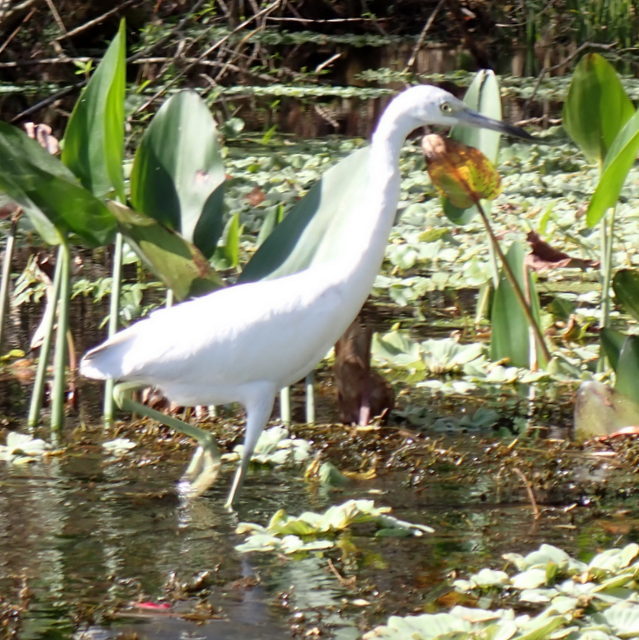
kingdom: Animalia
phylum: Chordata
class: Aves
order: Pelecaniformes
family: Ardeidae
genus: Egretta
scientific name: Egretta caerulea
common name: Little blue heron
